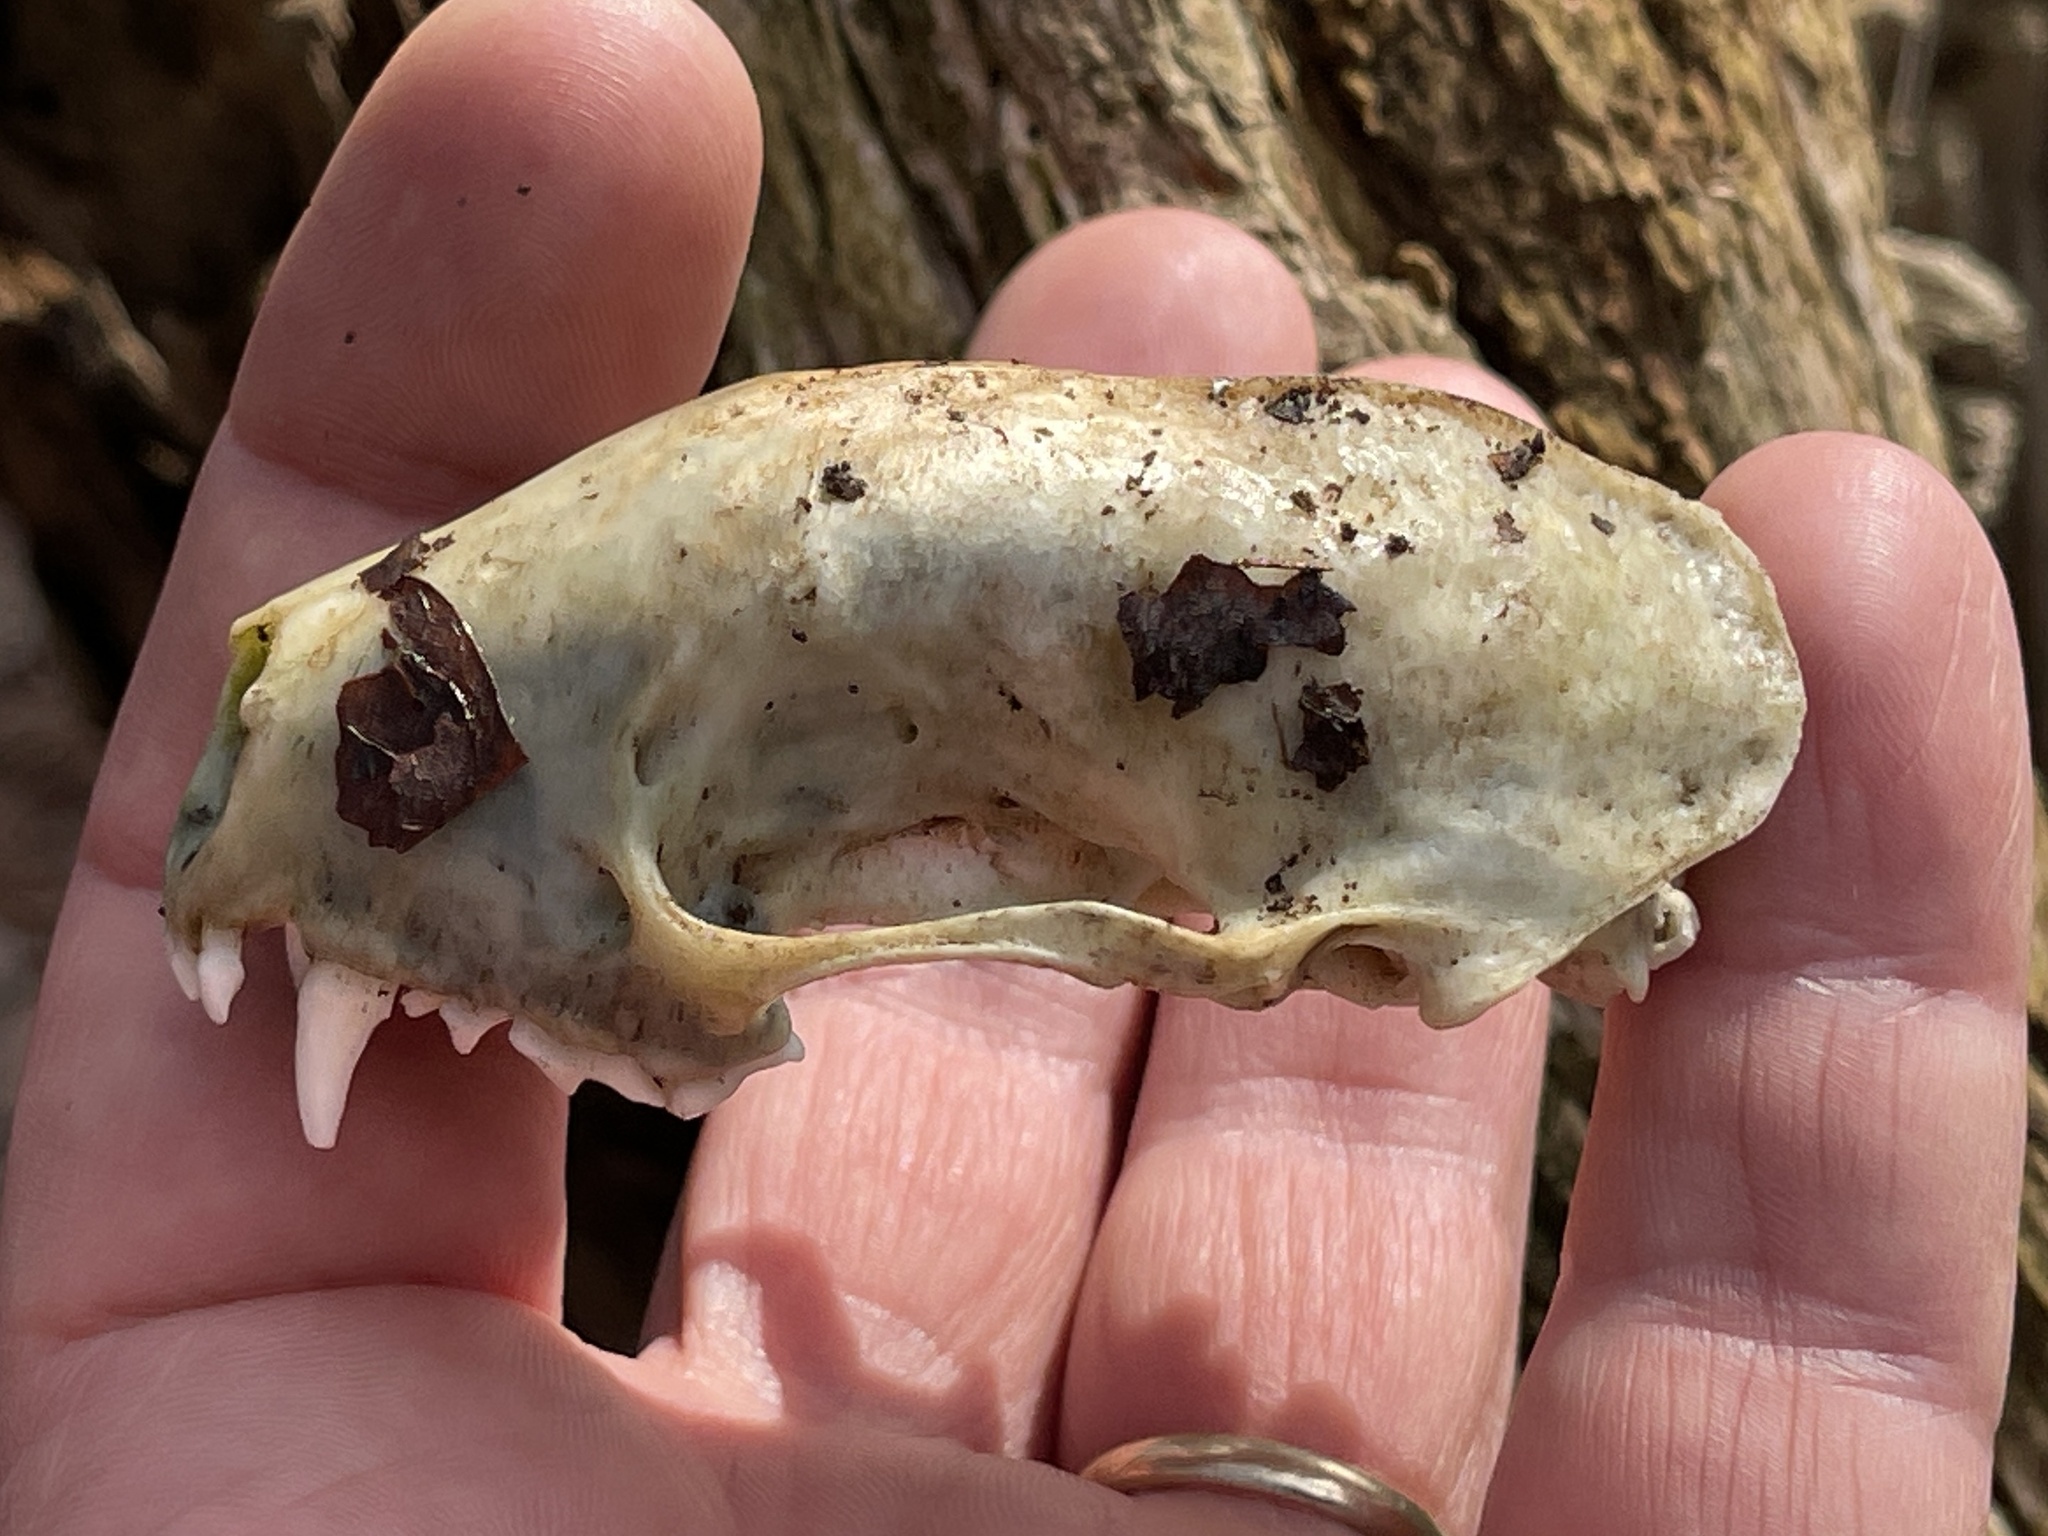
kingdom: Animalia
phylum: Chordata
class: Mammalia
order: Carnivora
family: Mephitidae
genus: Mephitis
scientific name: Mephitis mephitis
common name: Striped skunk
